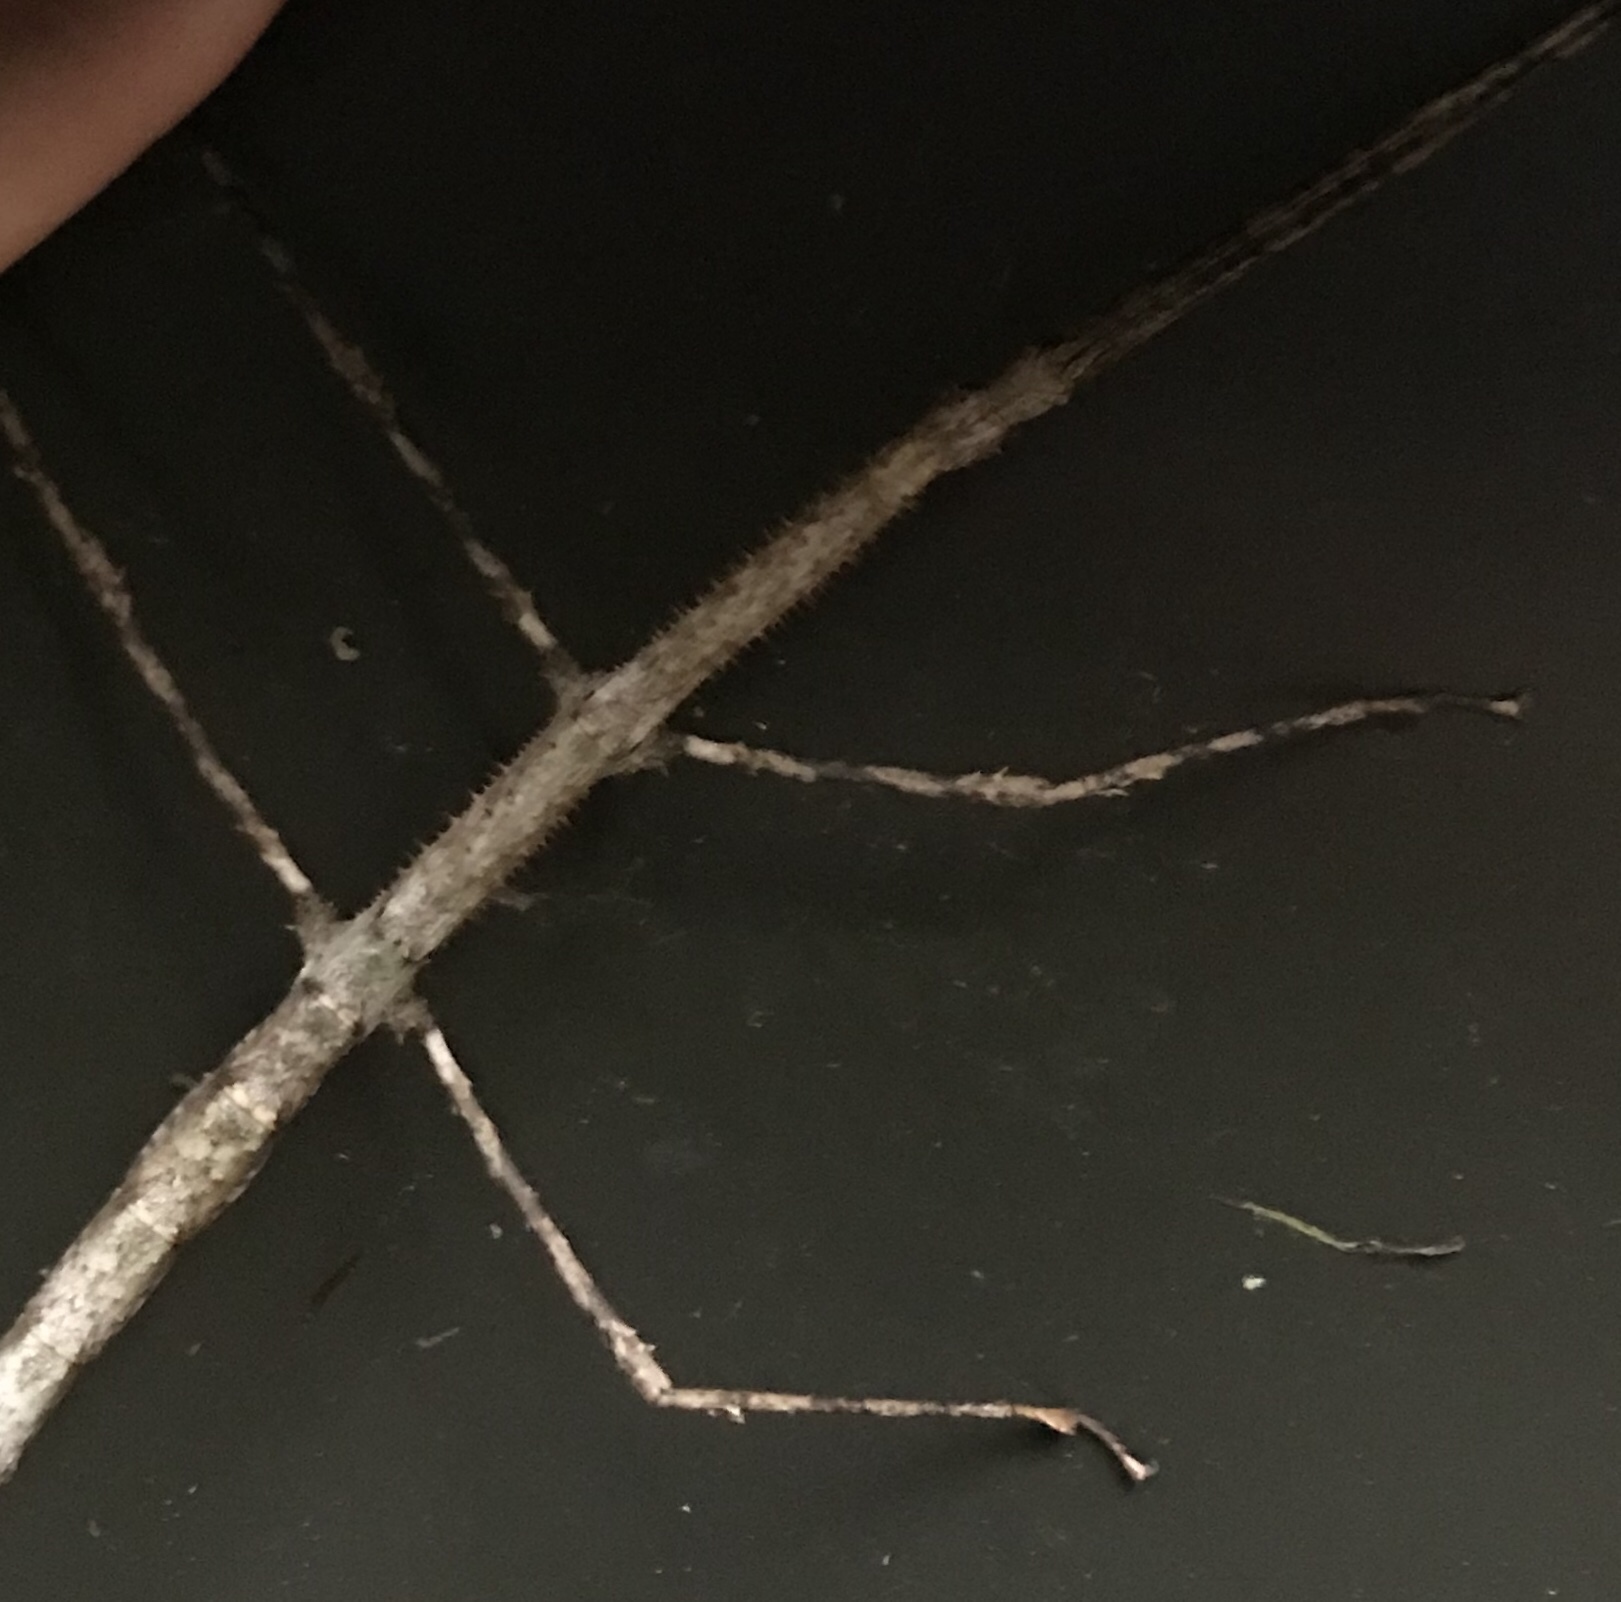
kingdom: Animalia
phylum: Arthropoda
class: Insecta
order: Phasmida
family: Phasmatidae
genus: Argosarchus
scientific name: Argosarchus horridus
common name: Bristly stick insect
